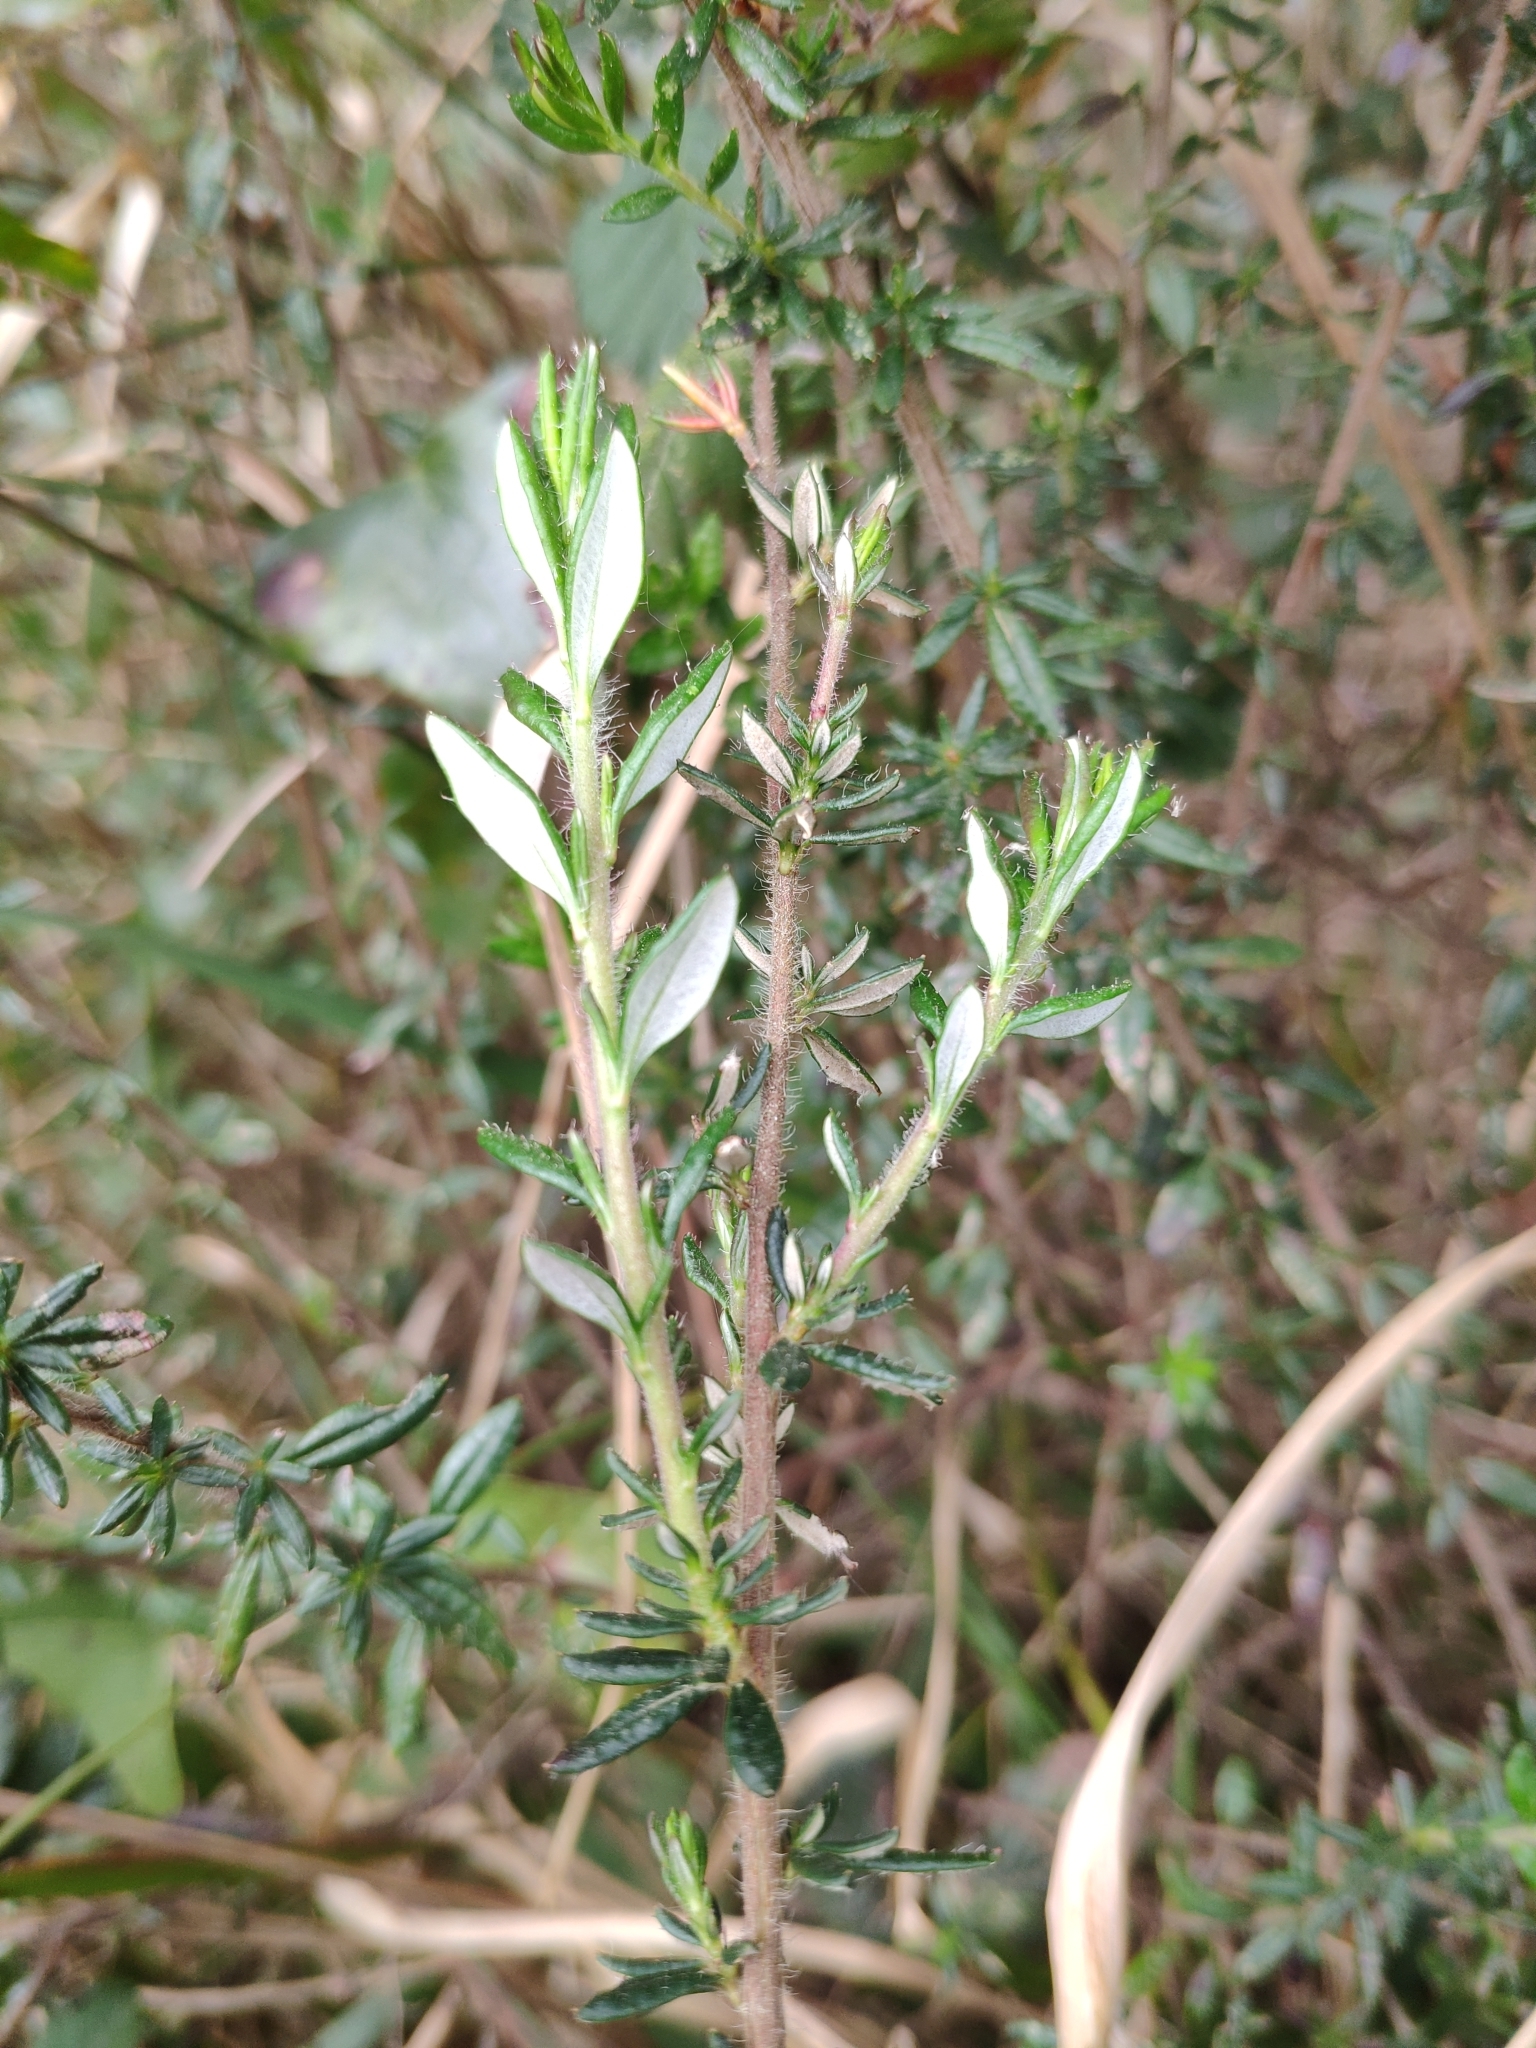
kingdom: Plantae
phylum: Tracheophyta
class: Magnoliopsida
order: Ericales
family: Ericaceae
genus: Daboecia
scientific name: Daboecia cantabrica
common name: St. dabeoc's-heath
